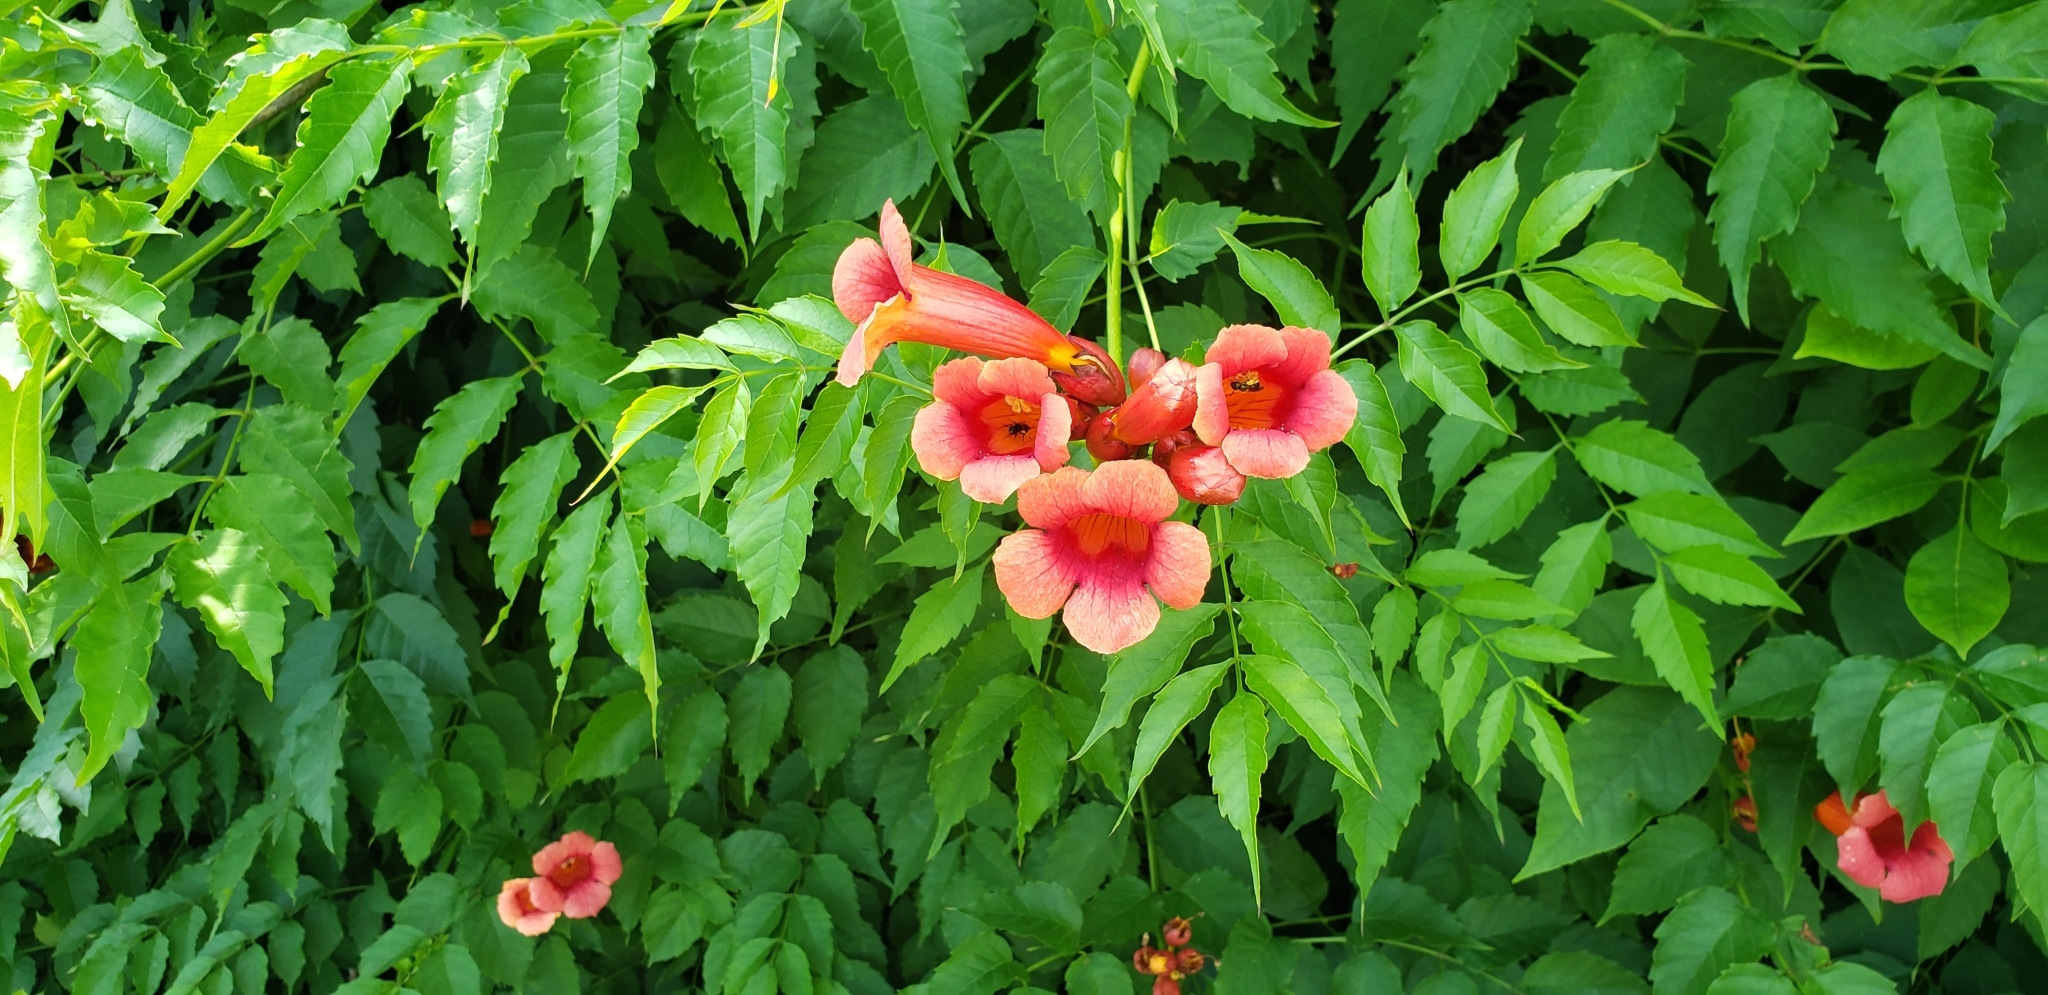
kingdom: Plantae
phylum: Tracheophyta
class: Magnoliopsida
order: Lamiales
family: Bignoniaceae
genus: Campsis
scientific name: Campsis radicans
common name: Trumpet-creeper
